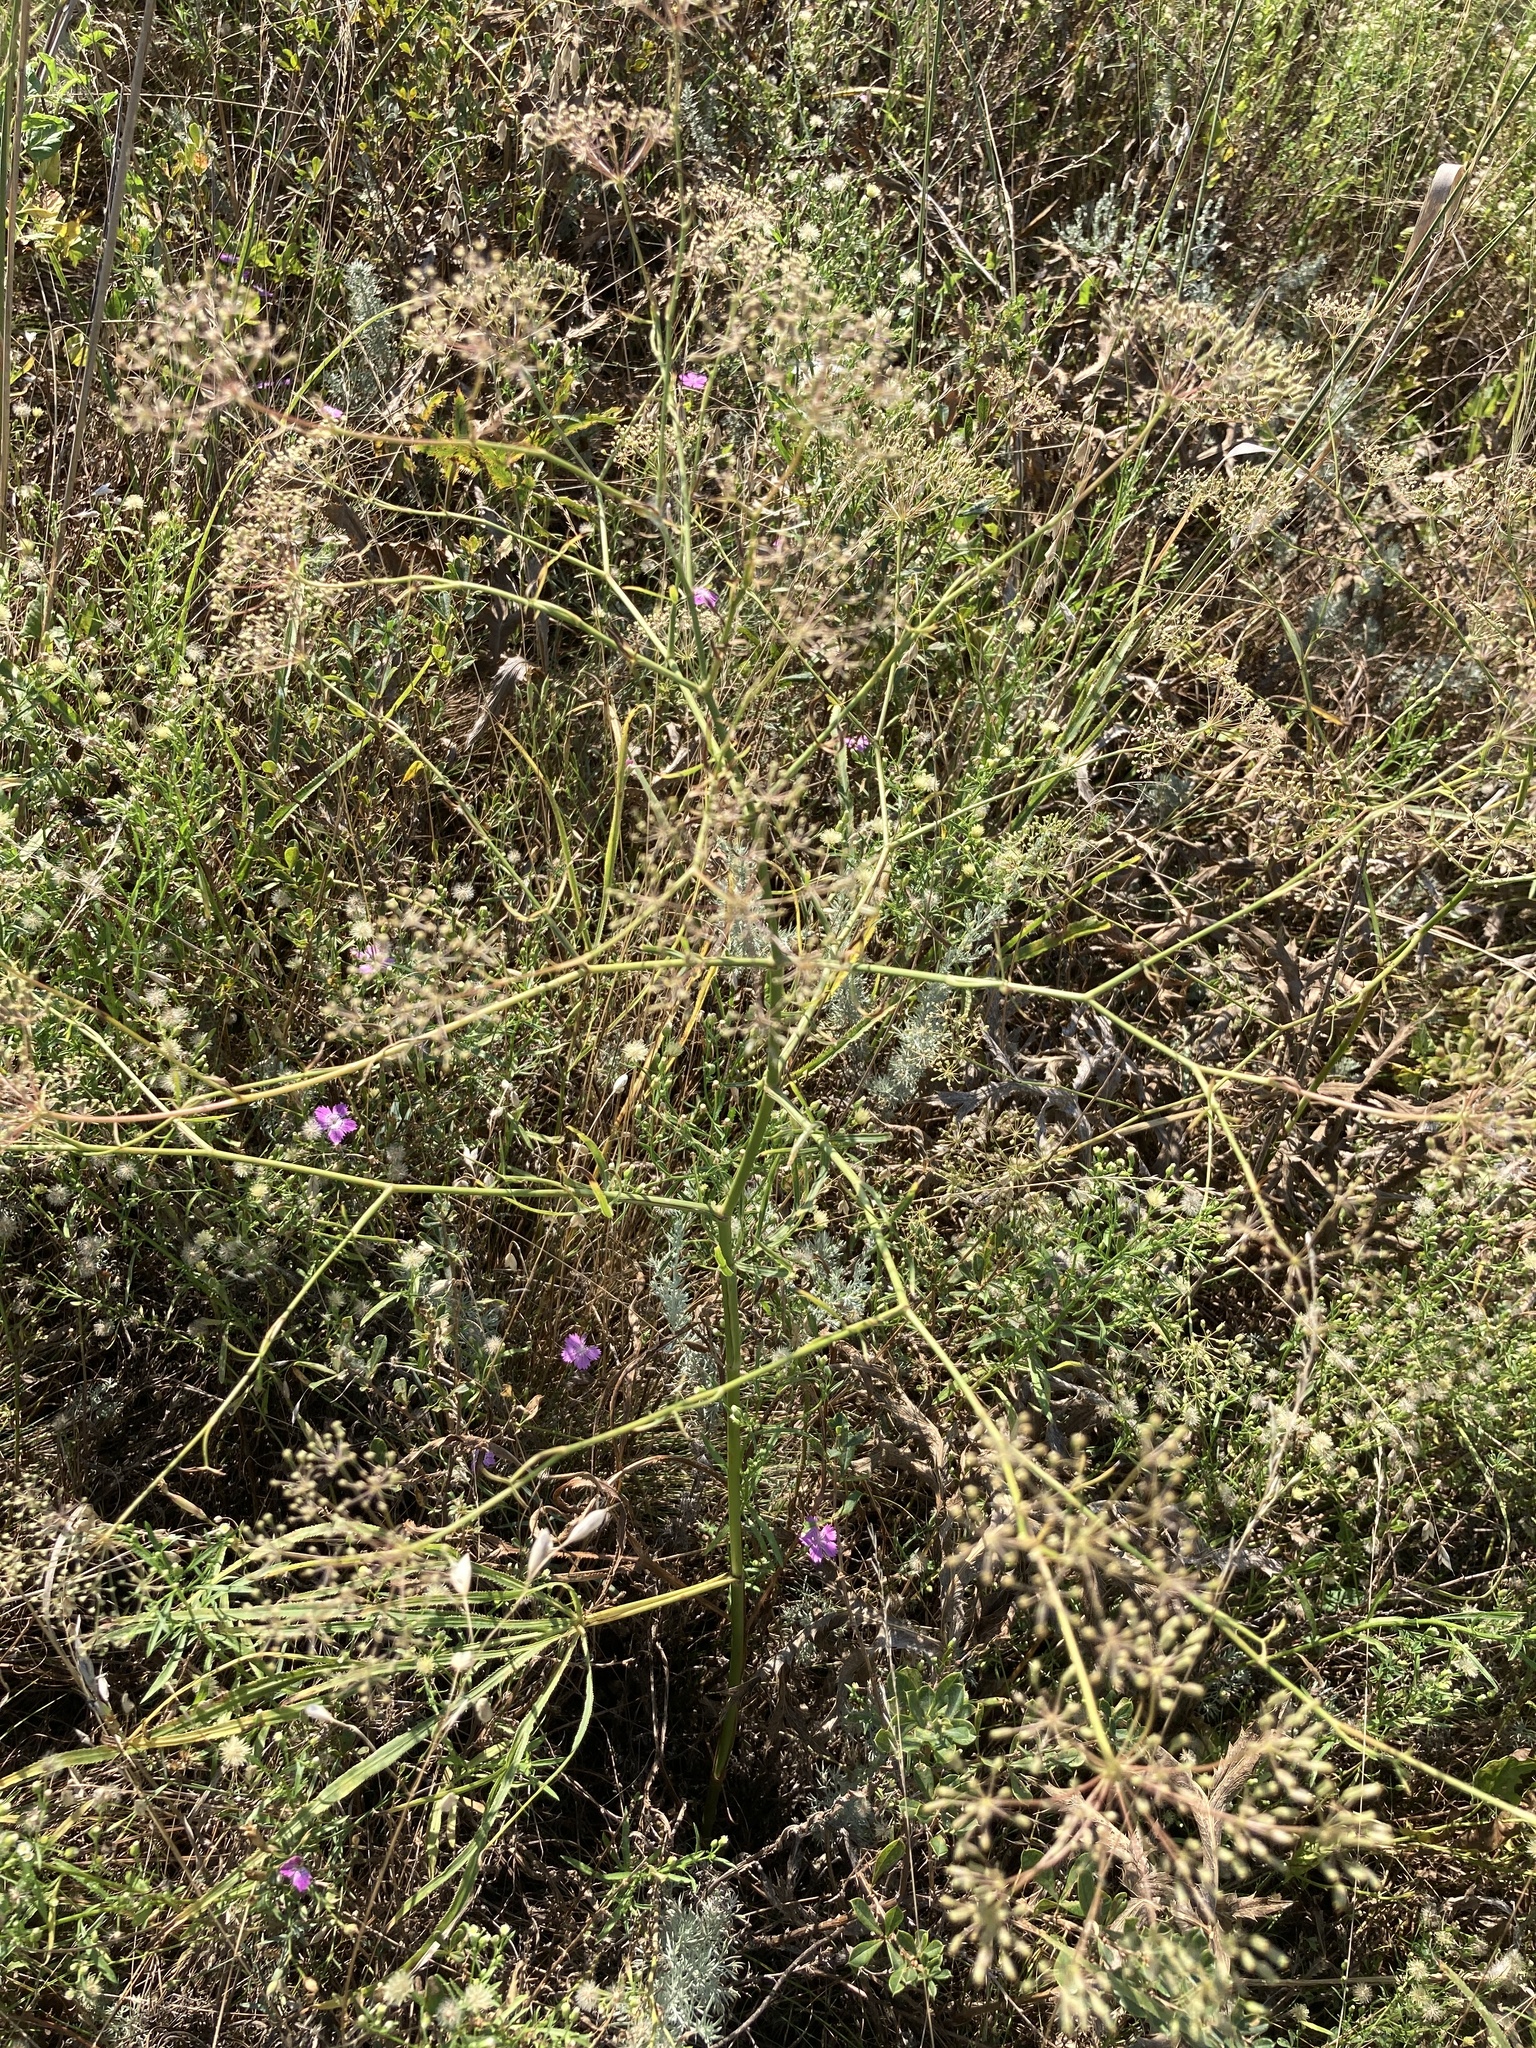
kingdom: Plantae
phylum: Tracheophyta
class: Magnoliopsida
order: Apiales
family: Apiaceae
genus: Falcaria
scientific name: Falcaria vulgaris
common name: Longleaf
